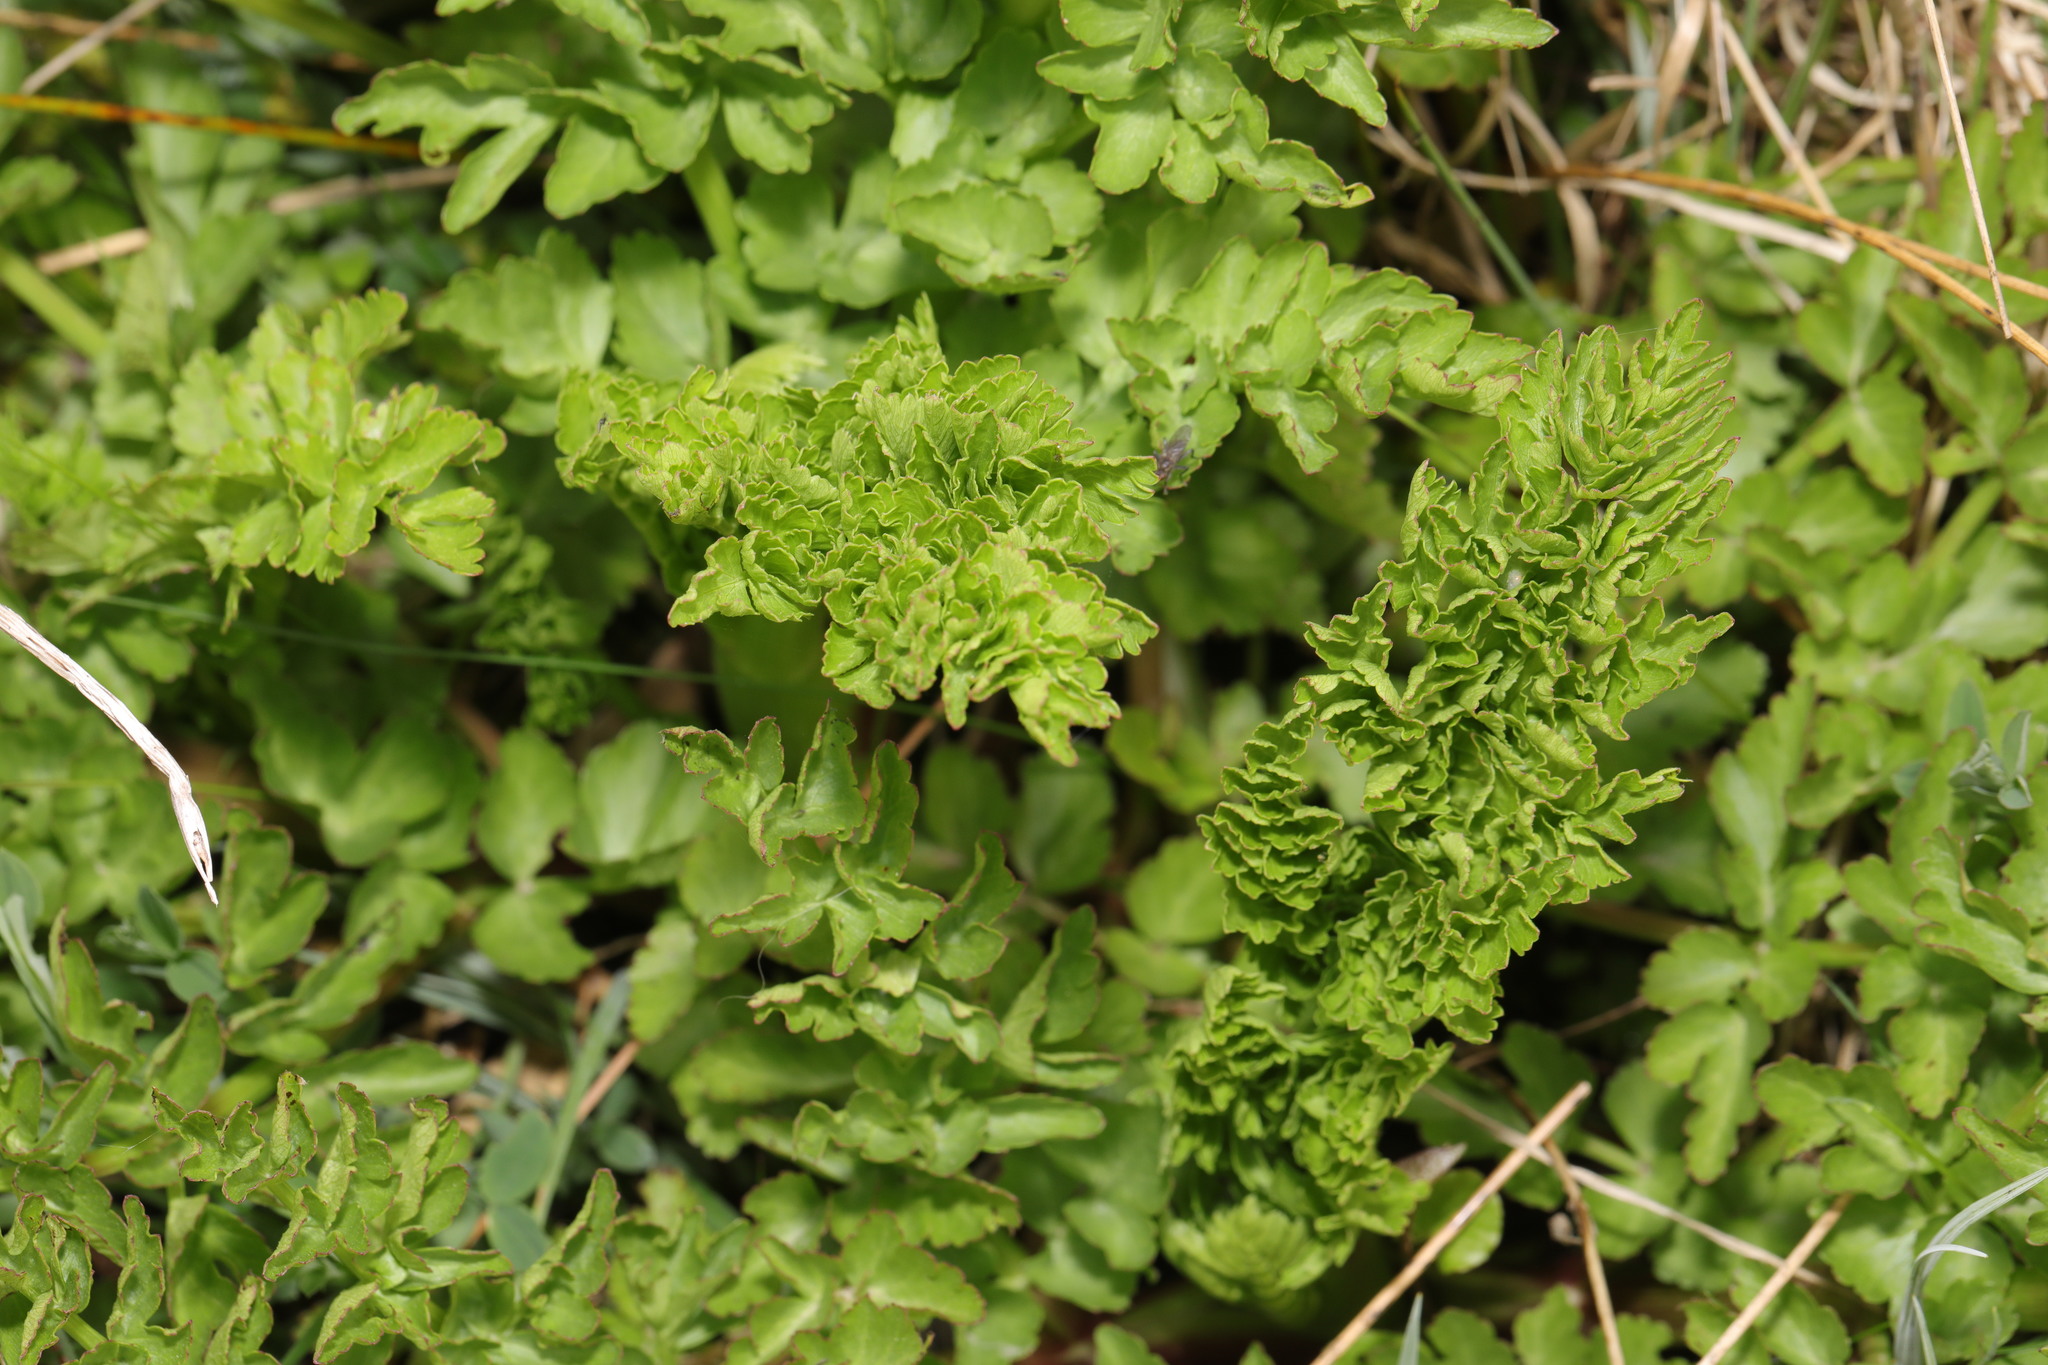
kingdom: Plantae
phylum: Tracheophyta
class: Magnoliopsida
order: Apiales
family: Apiaceae
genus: Oenanthe
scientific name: Oenanthe crocata
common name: Hemlock water-dropwort
